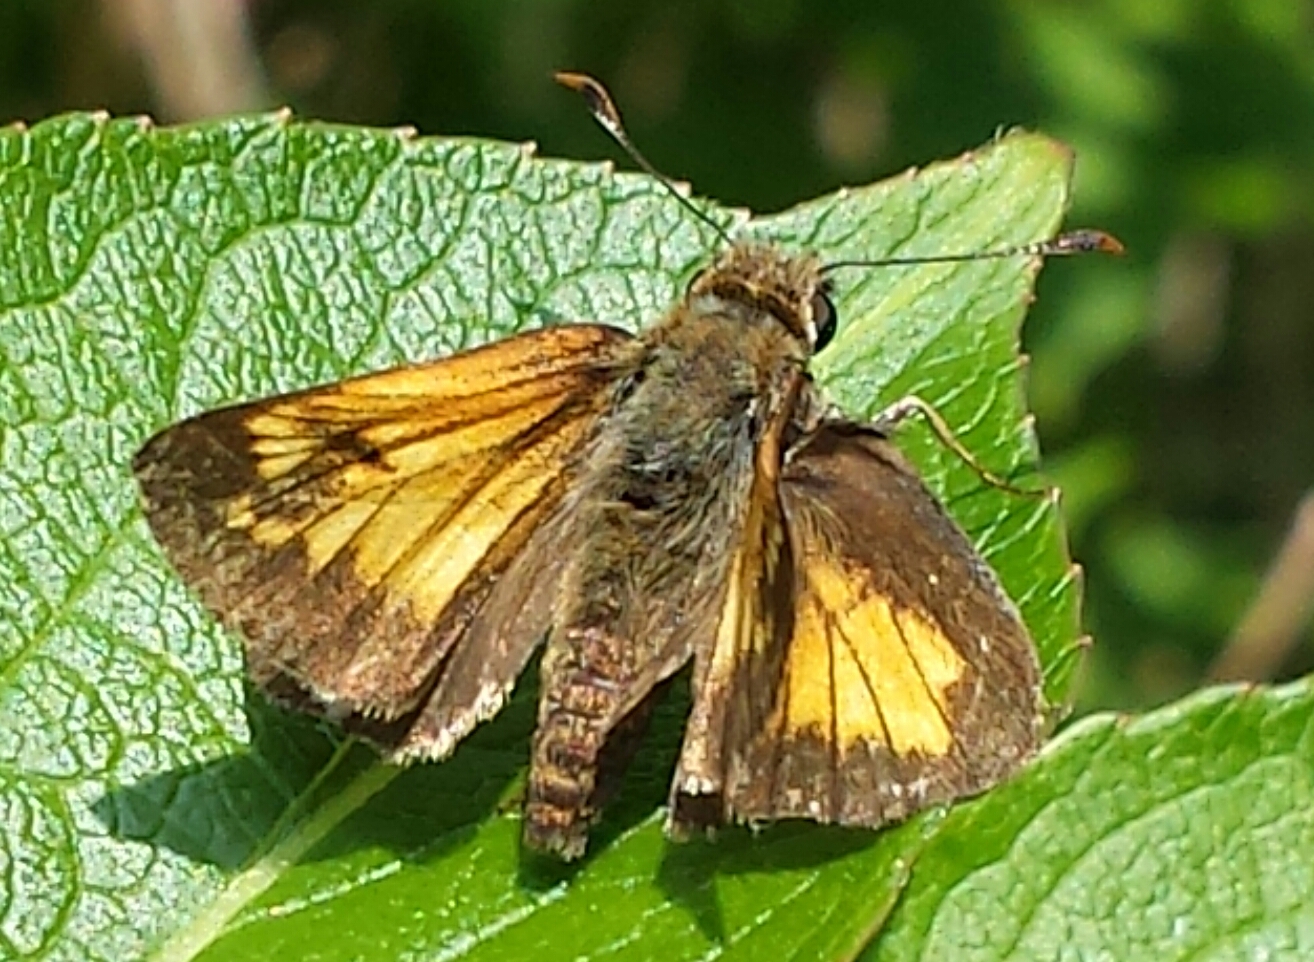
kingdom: Animalia
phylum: Arthropoda
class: Insecta
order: Lepidoptera
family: Hesperiidae
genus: Lon
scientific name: Lon hobomok
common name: Hobomok skipper
